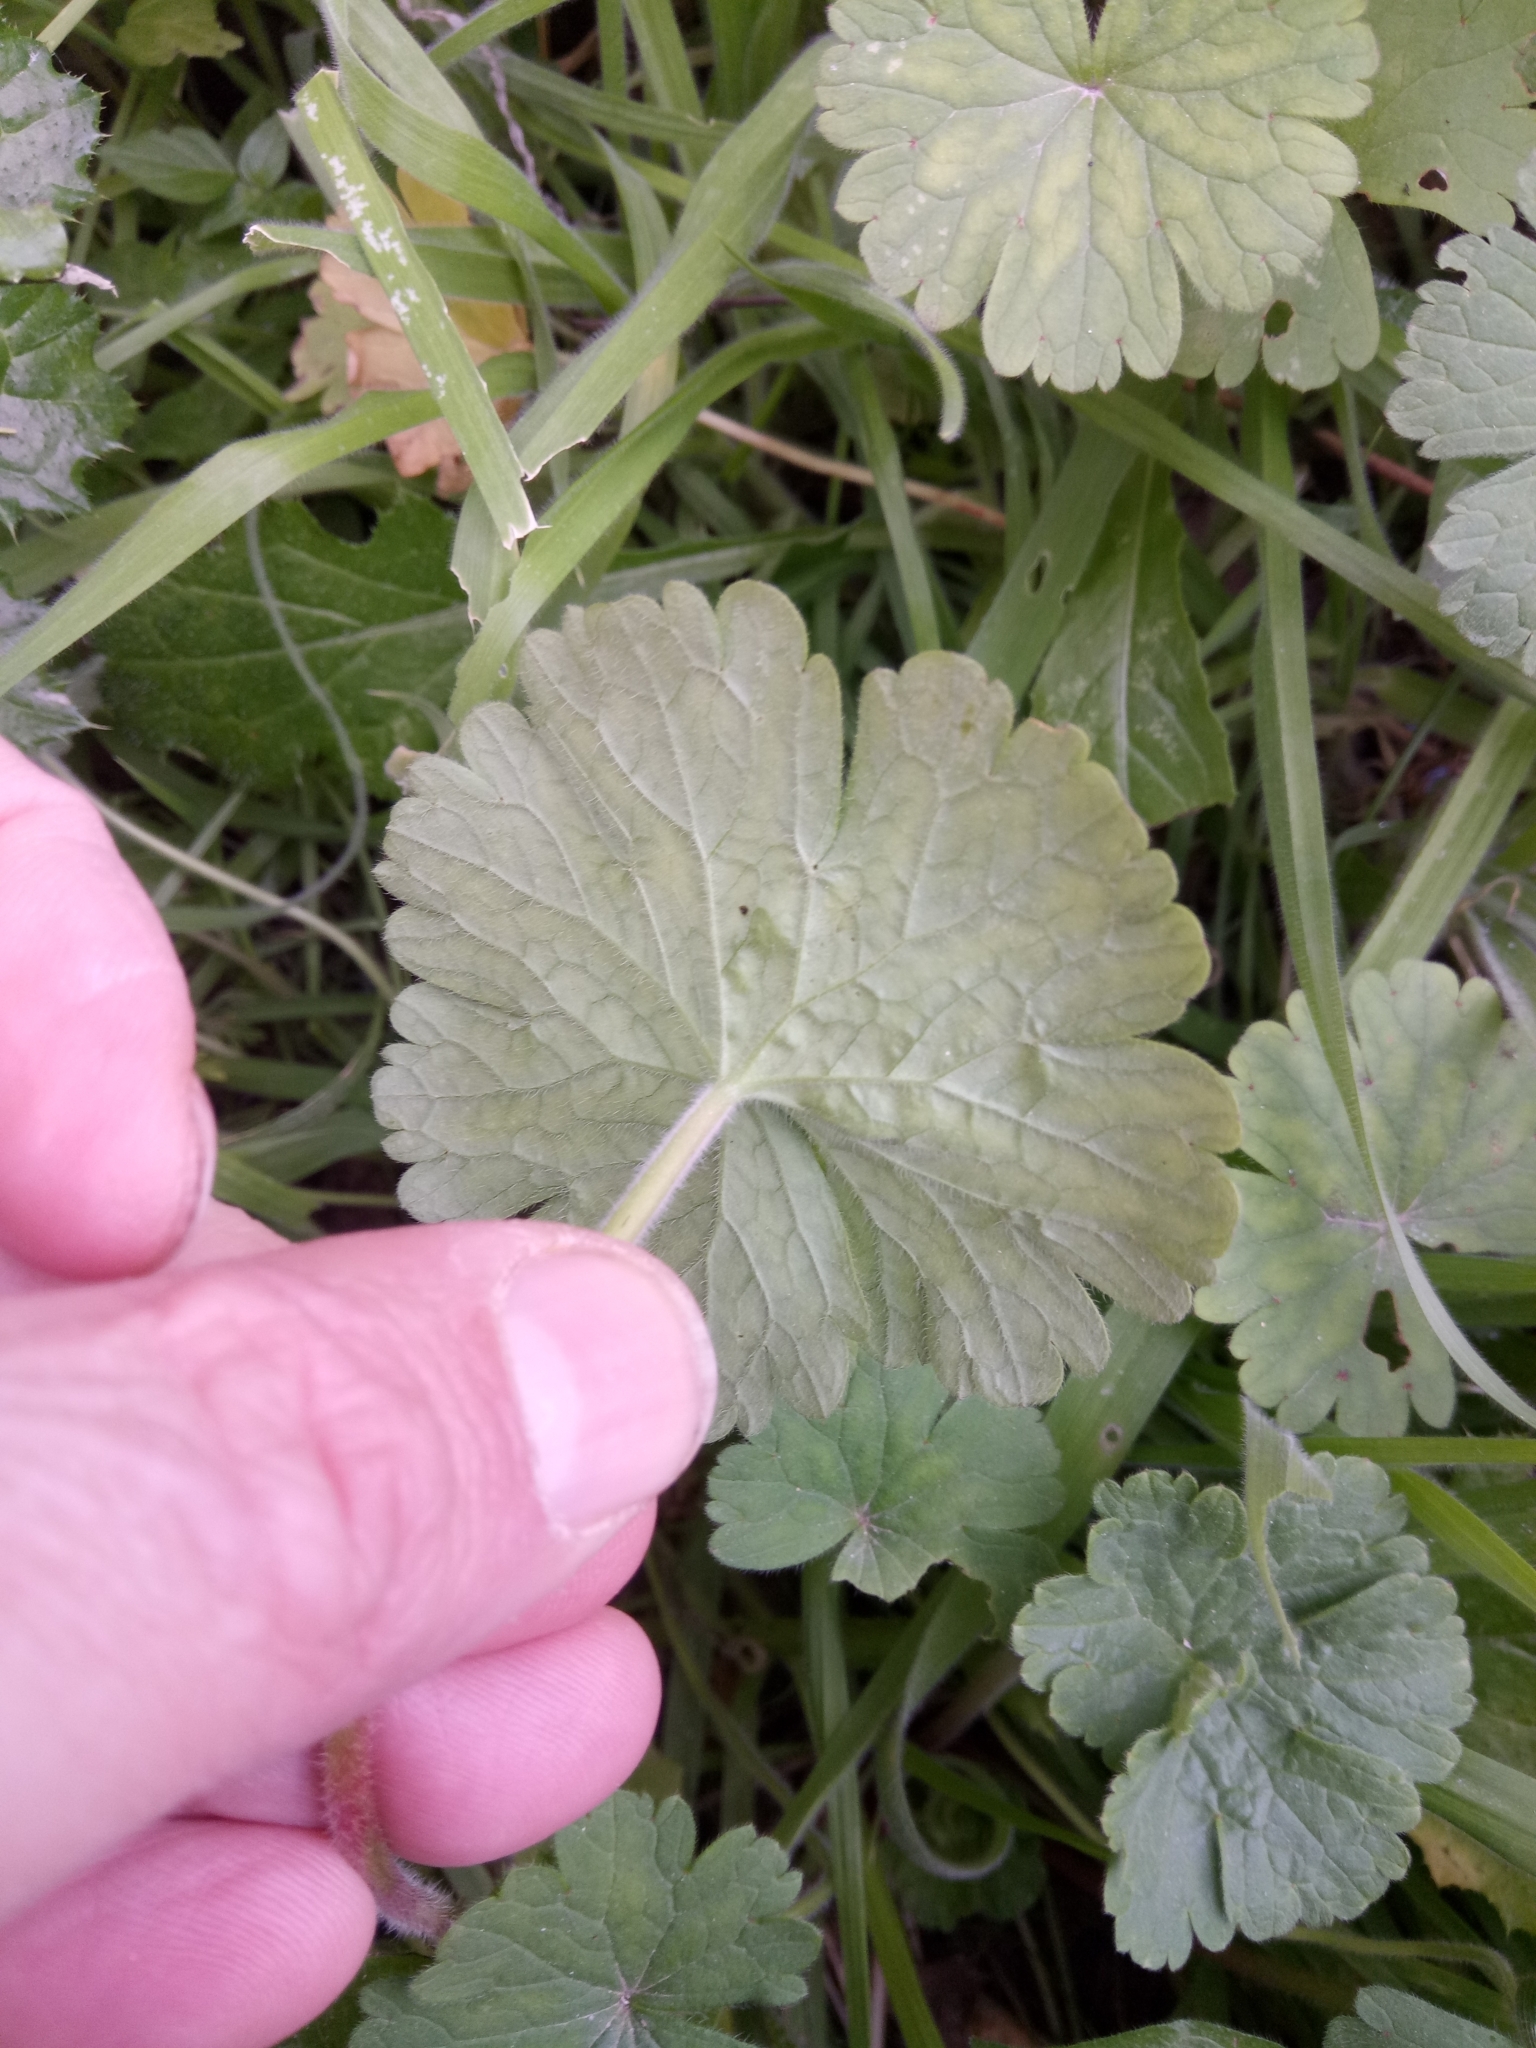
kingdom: Plantae
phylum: Tracheophyta
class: Magnoliopsida
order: Geraniales
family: Geraniaceae
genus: Geranium
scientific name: Geranium rotundifolium
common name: Round-leaved crane's-bill
